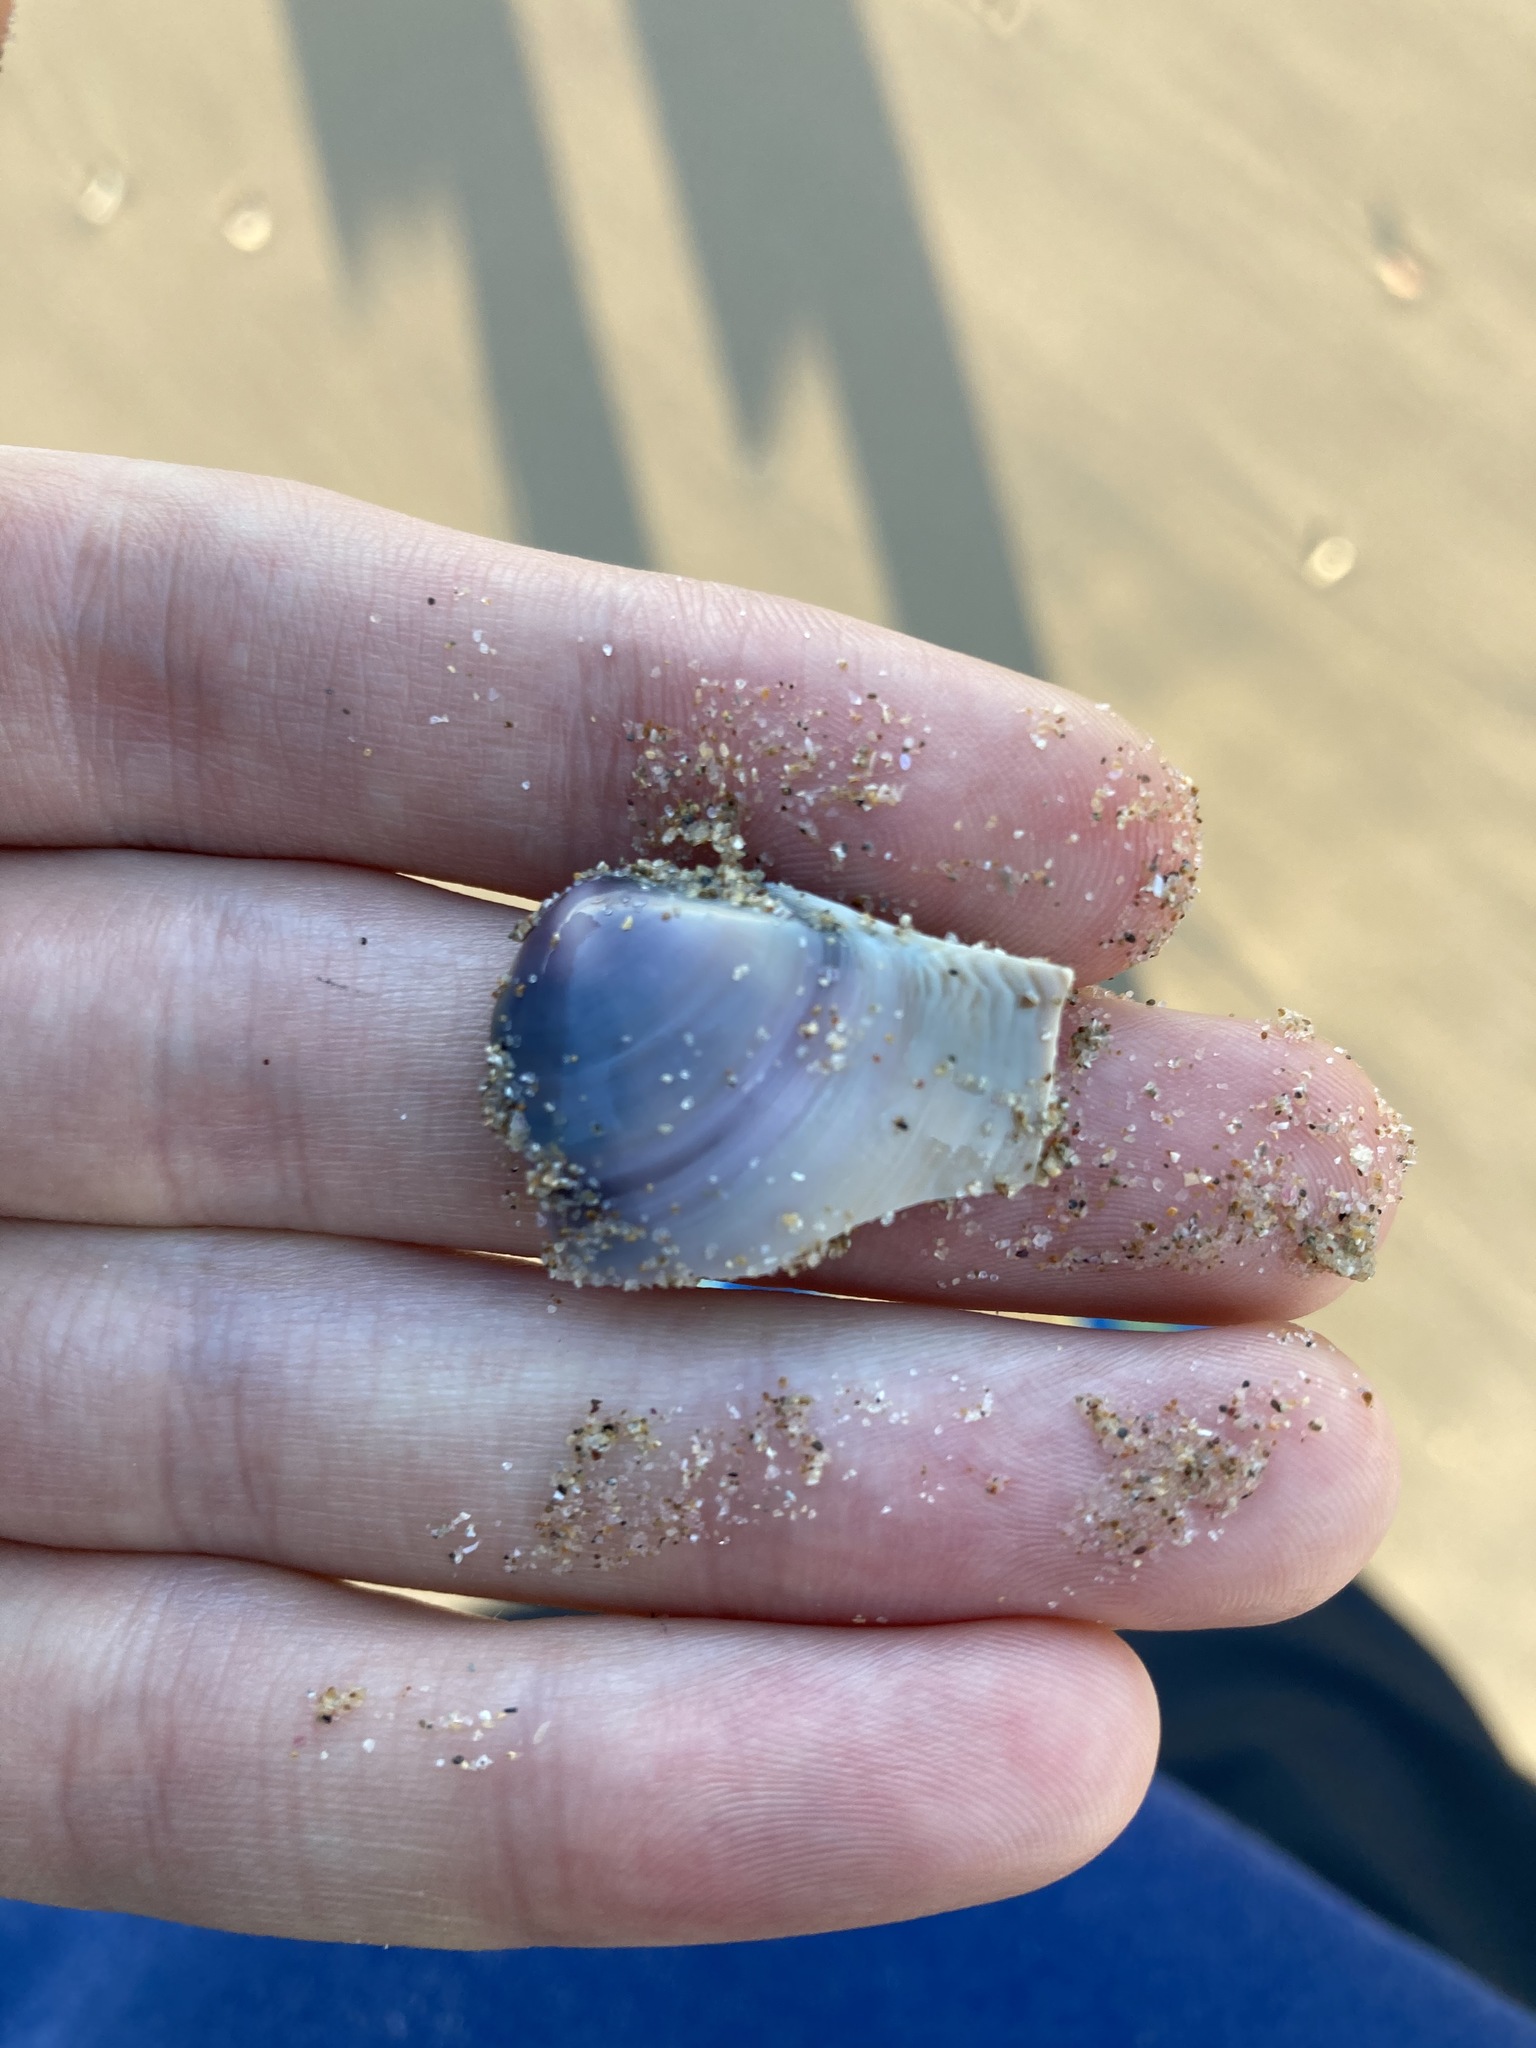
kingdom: Animalia
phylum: Mollusca
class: Bivalvia
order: Venerida
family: Mactridae
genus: Austromactra
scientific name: Austromactra contraria
